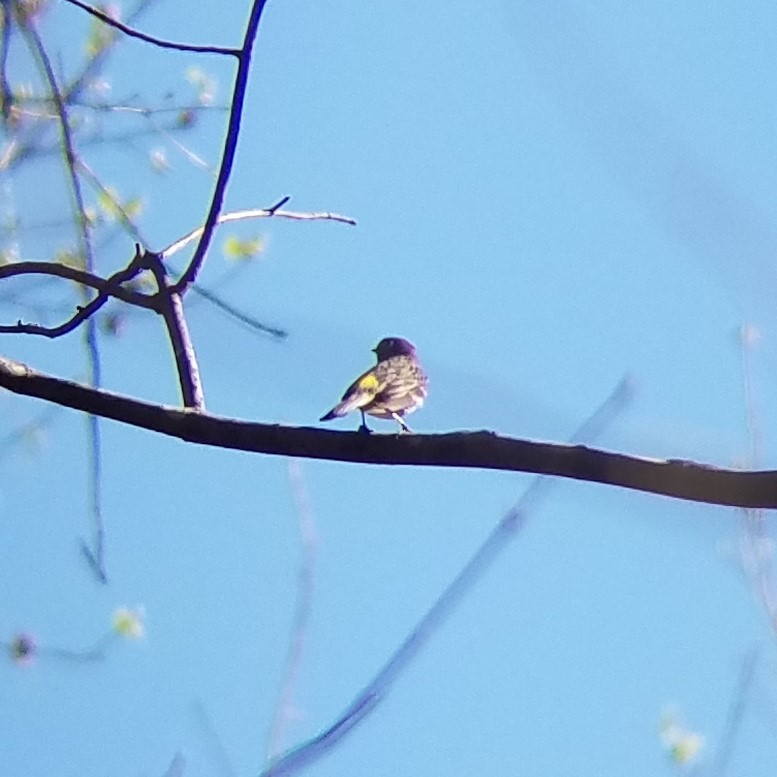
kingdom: Animalia
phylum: Chordata
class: Aves
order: Passeriformes
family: Parulidae
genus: Setophaga
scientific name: Setophaga coronata
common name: Myrtle warbler
